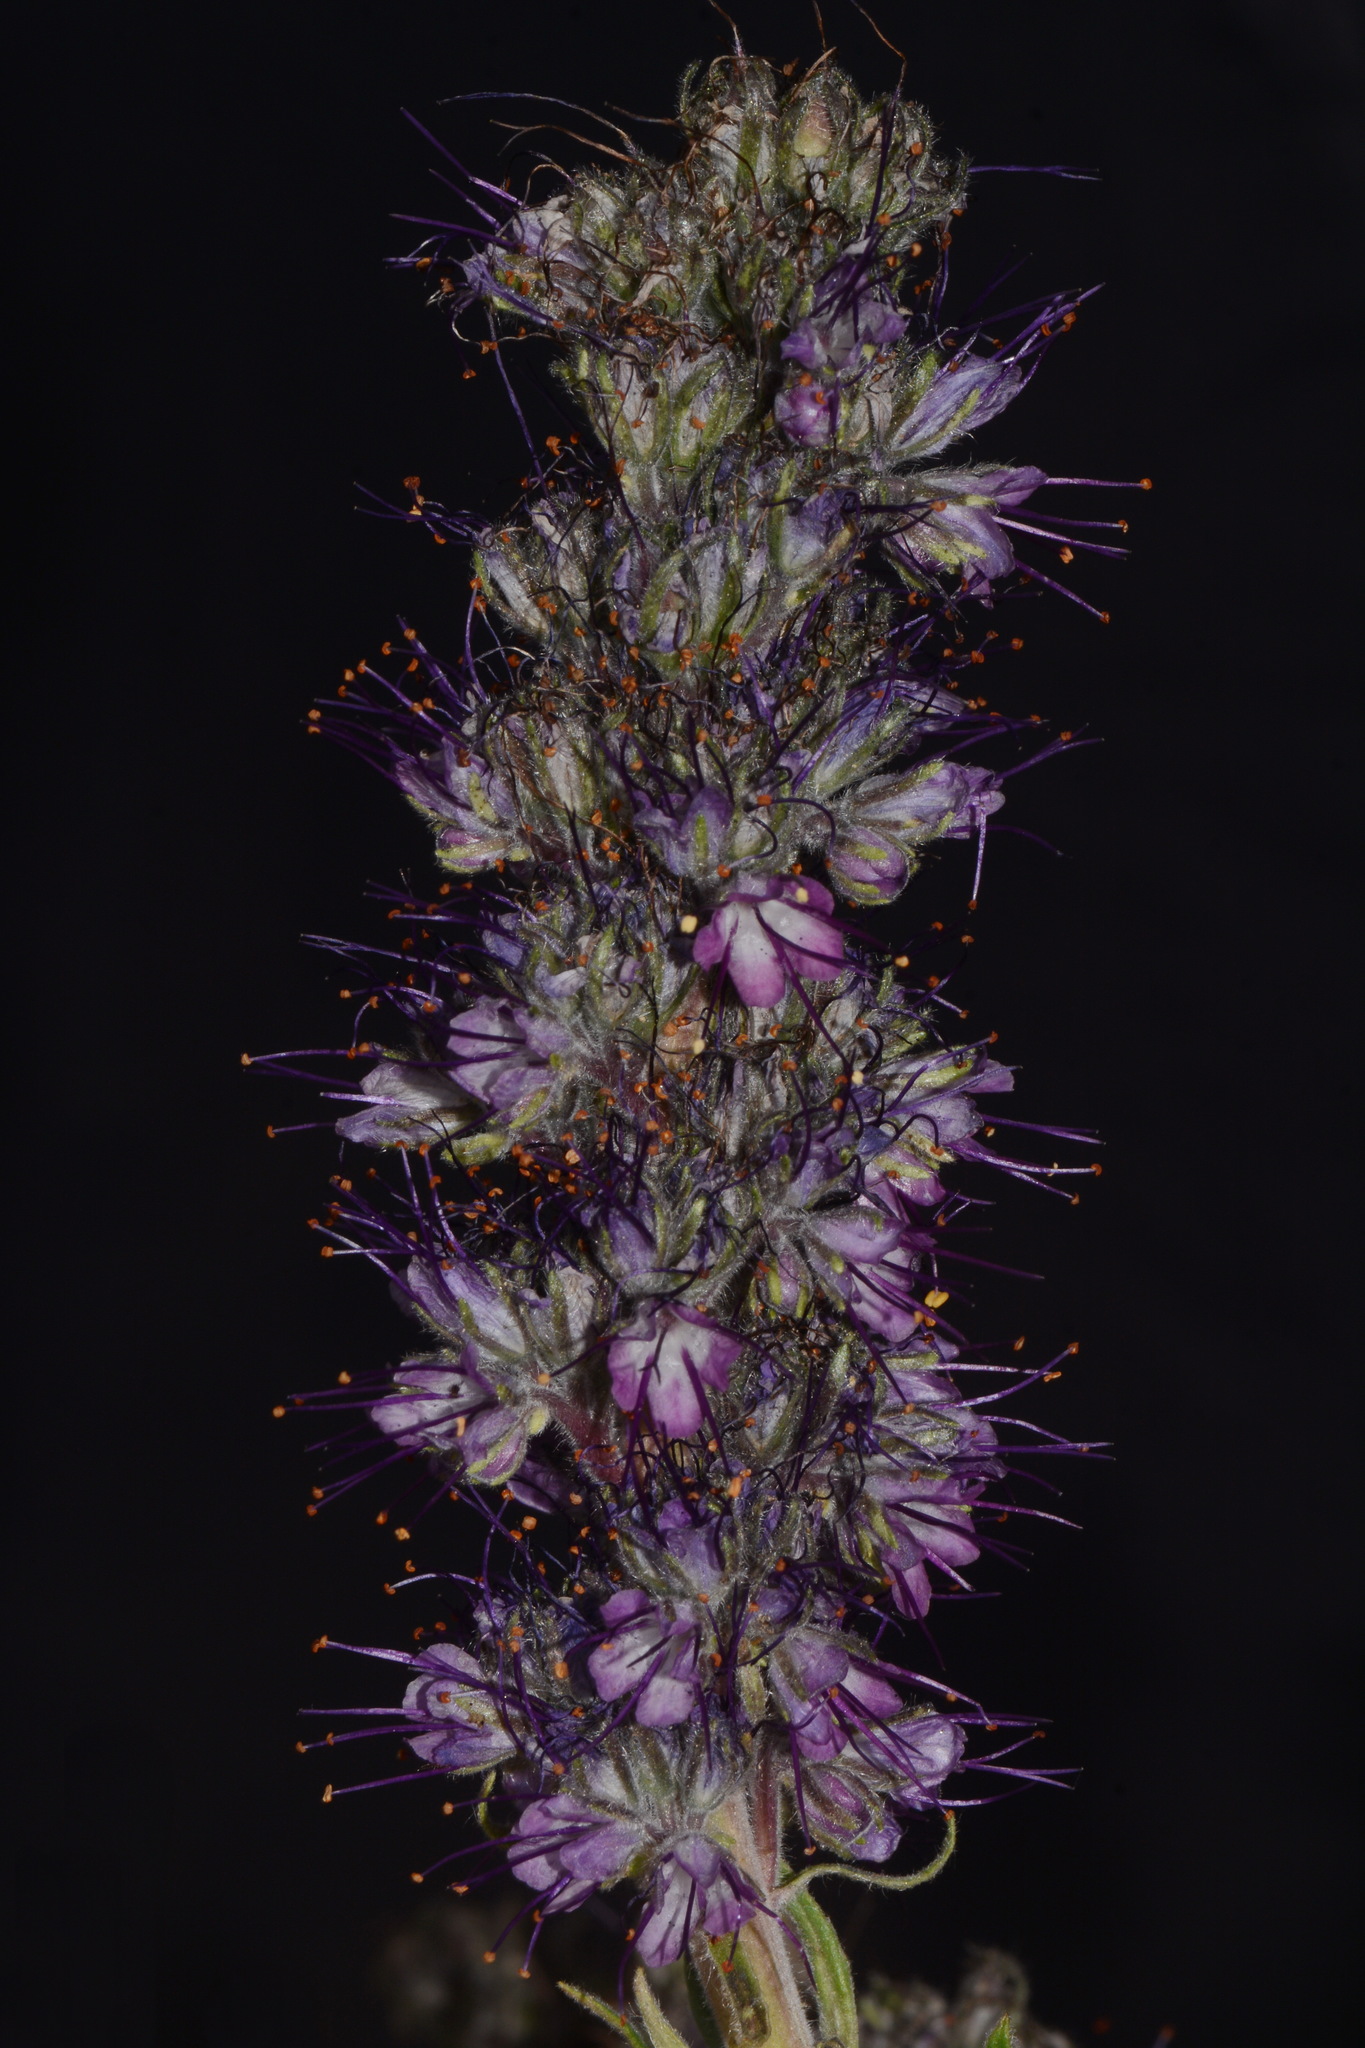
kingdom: Plantae
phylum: Tracheophyta
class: Magnoliopsida
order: Boraginales
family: Hydrophyllaceae
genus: Phacelia
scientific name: Phacelia sericea
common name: Silky phacelia
